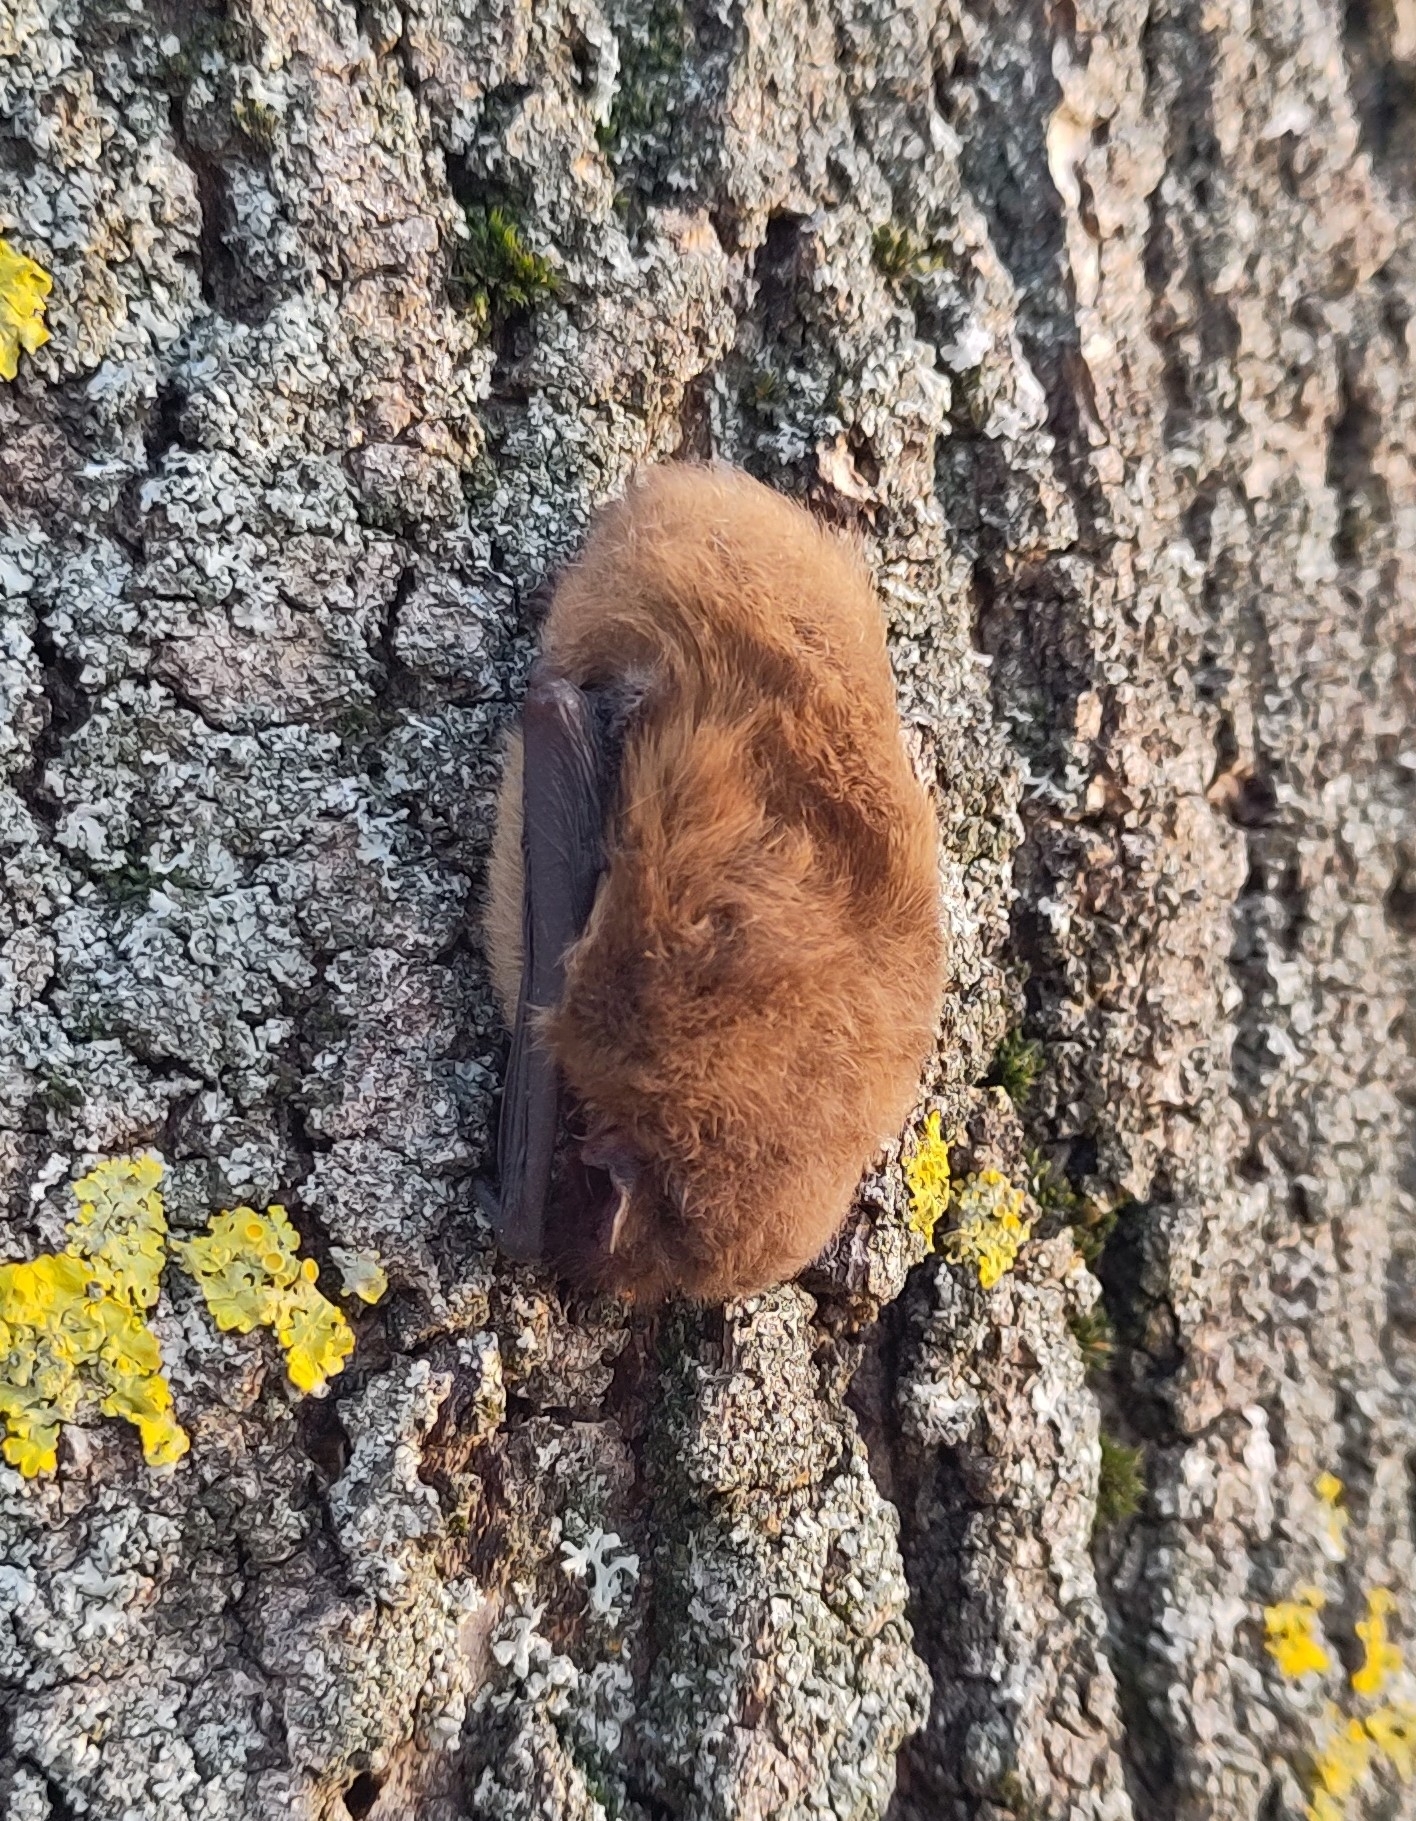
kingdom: Animalia
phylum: Chordata
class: Mammalia
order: Chiroptera
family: Vespertilionidae
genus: Pipistrellus
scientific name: Pipistrellus nathusii
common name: Nathusius's pipistrelle
